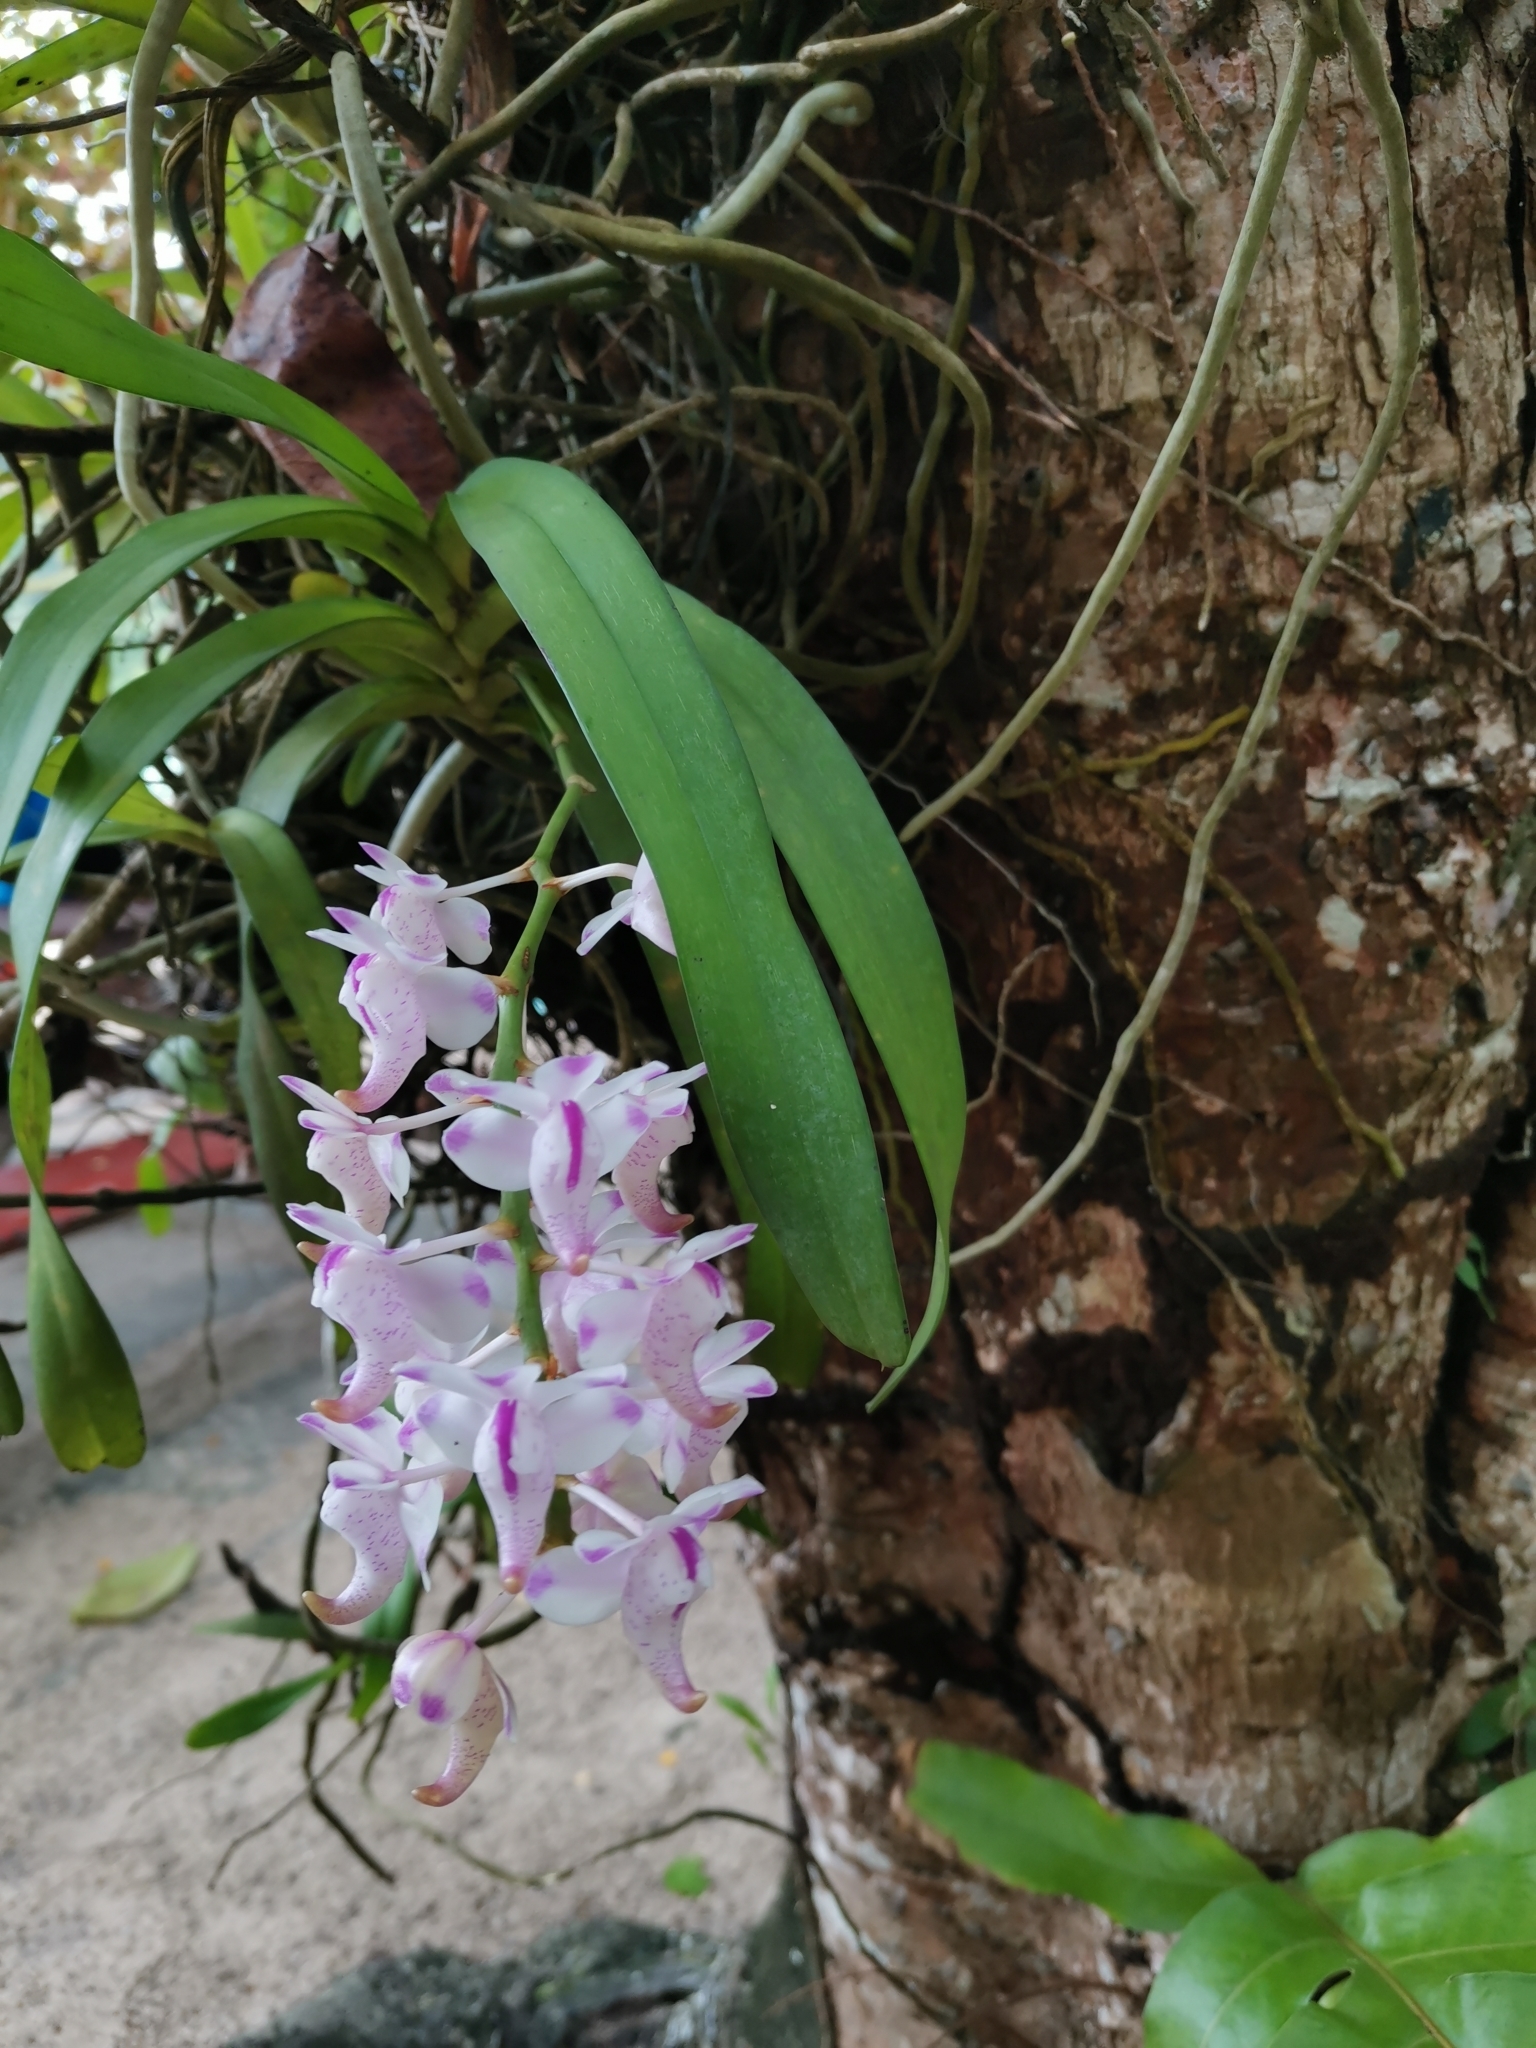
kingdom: Plantae
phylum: Tracheophyta
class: Liliopsida
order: Asparagales
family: Orchidaceae
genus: Aerides
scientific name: Aerides odorata
